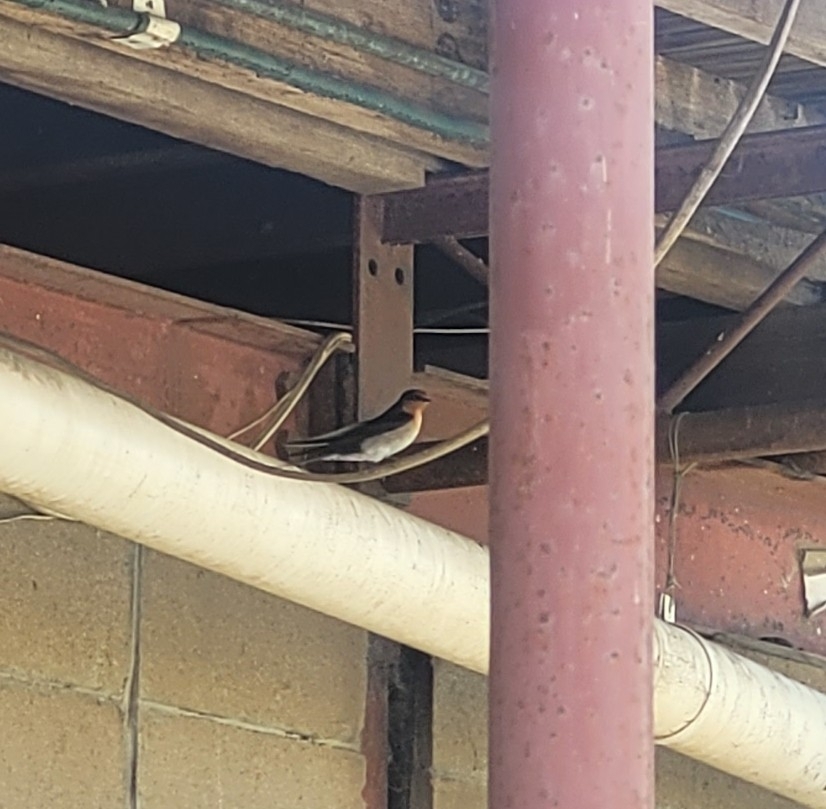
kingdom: Animalia
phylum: Chordata
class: Aves
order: Passeriformes
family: Hirundinidae
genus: Hirundo
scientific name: Hirundo neoxena
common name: Welcome swallow
